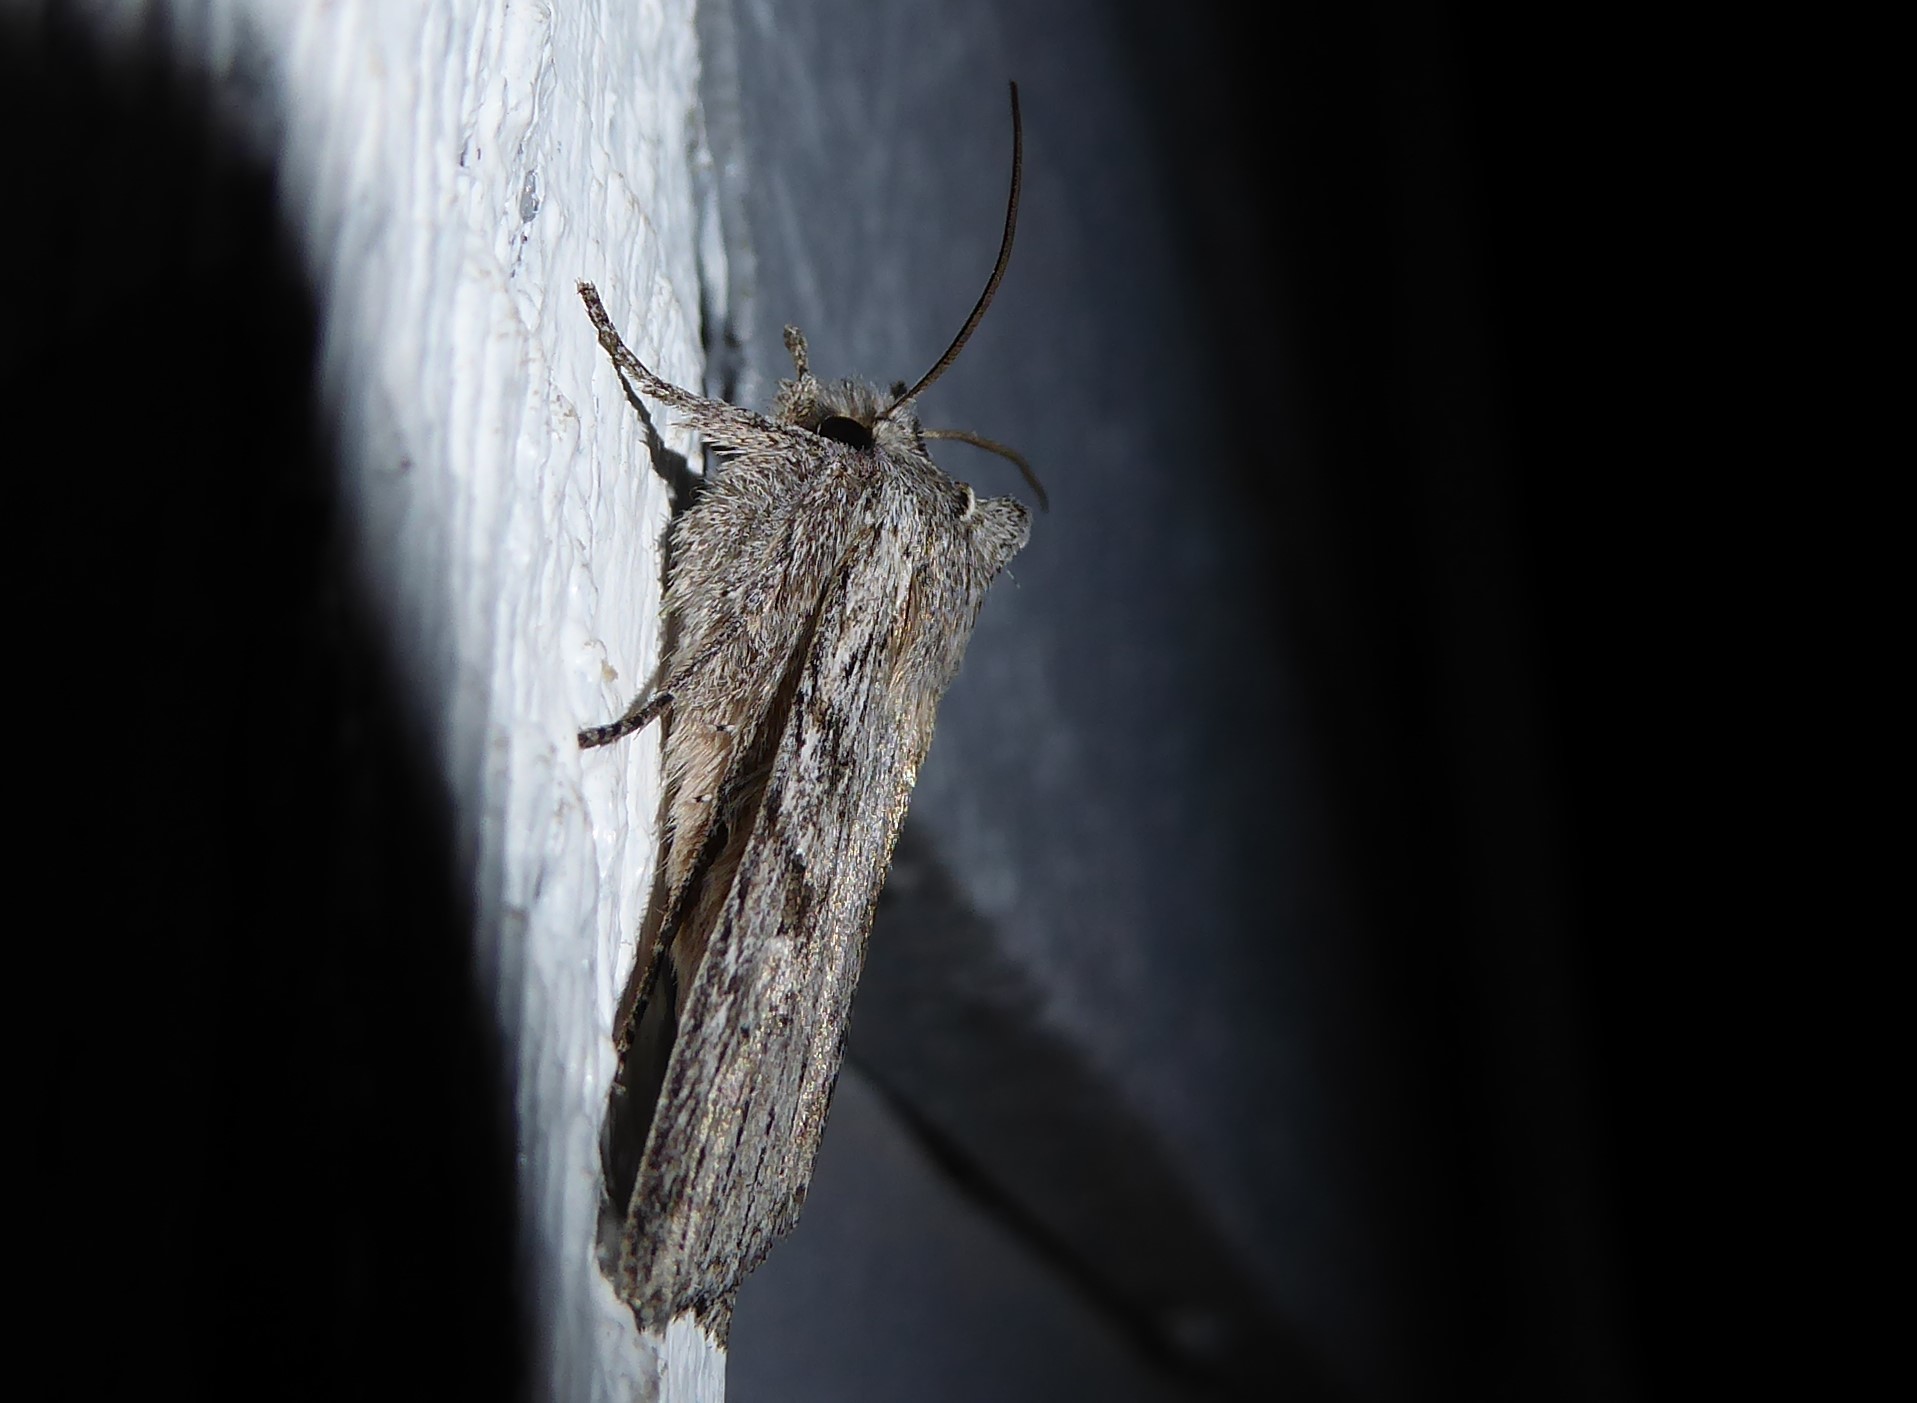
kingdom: Animalia
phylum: Arthropoda
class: Insecta
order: Lepidoptera
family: Noctuidae
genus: Physetica
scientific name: Physetica phricias
